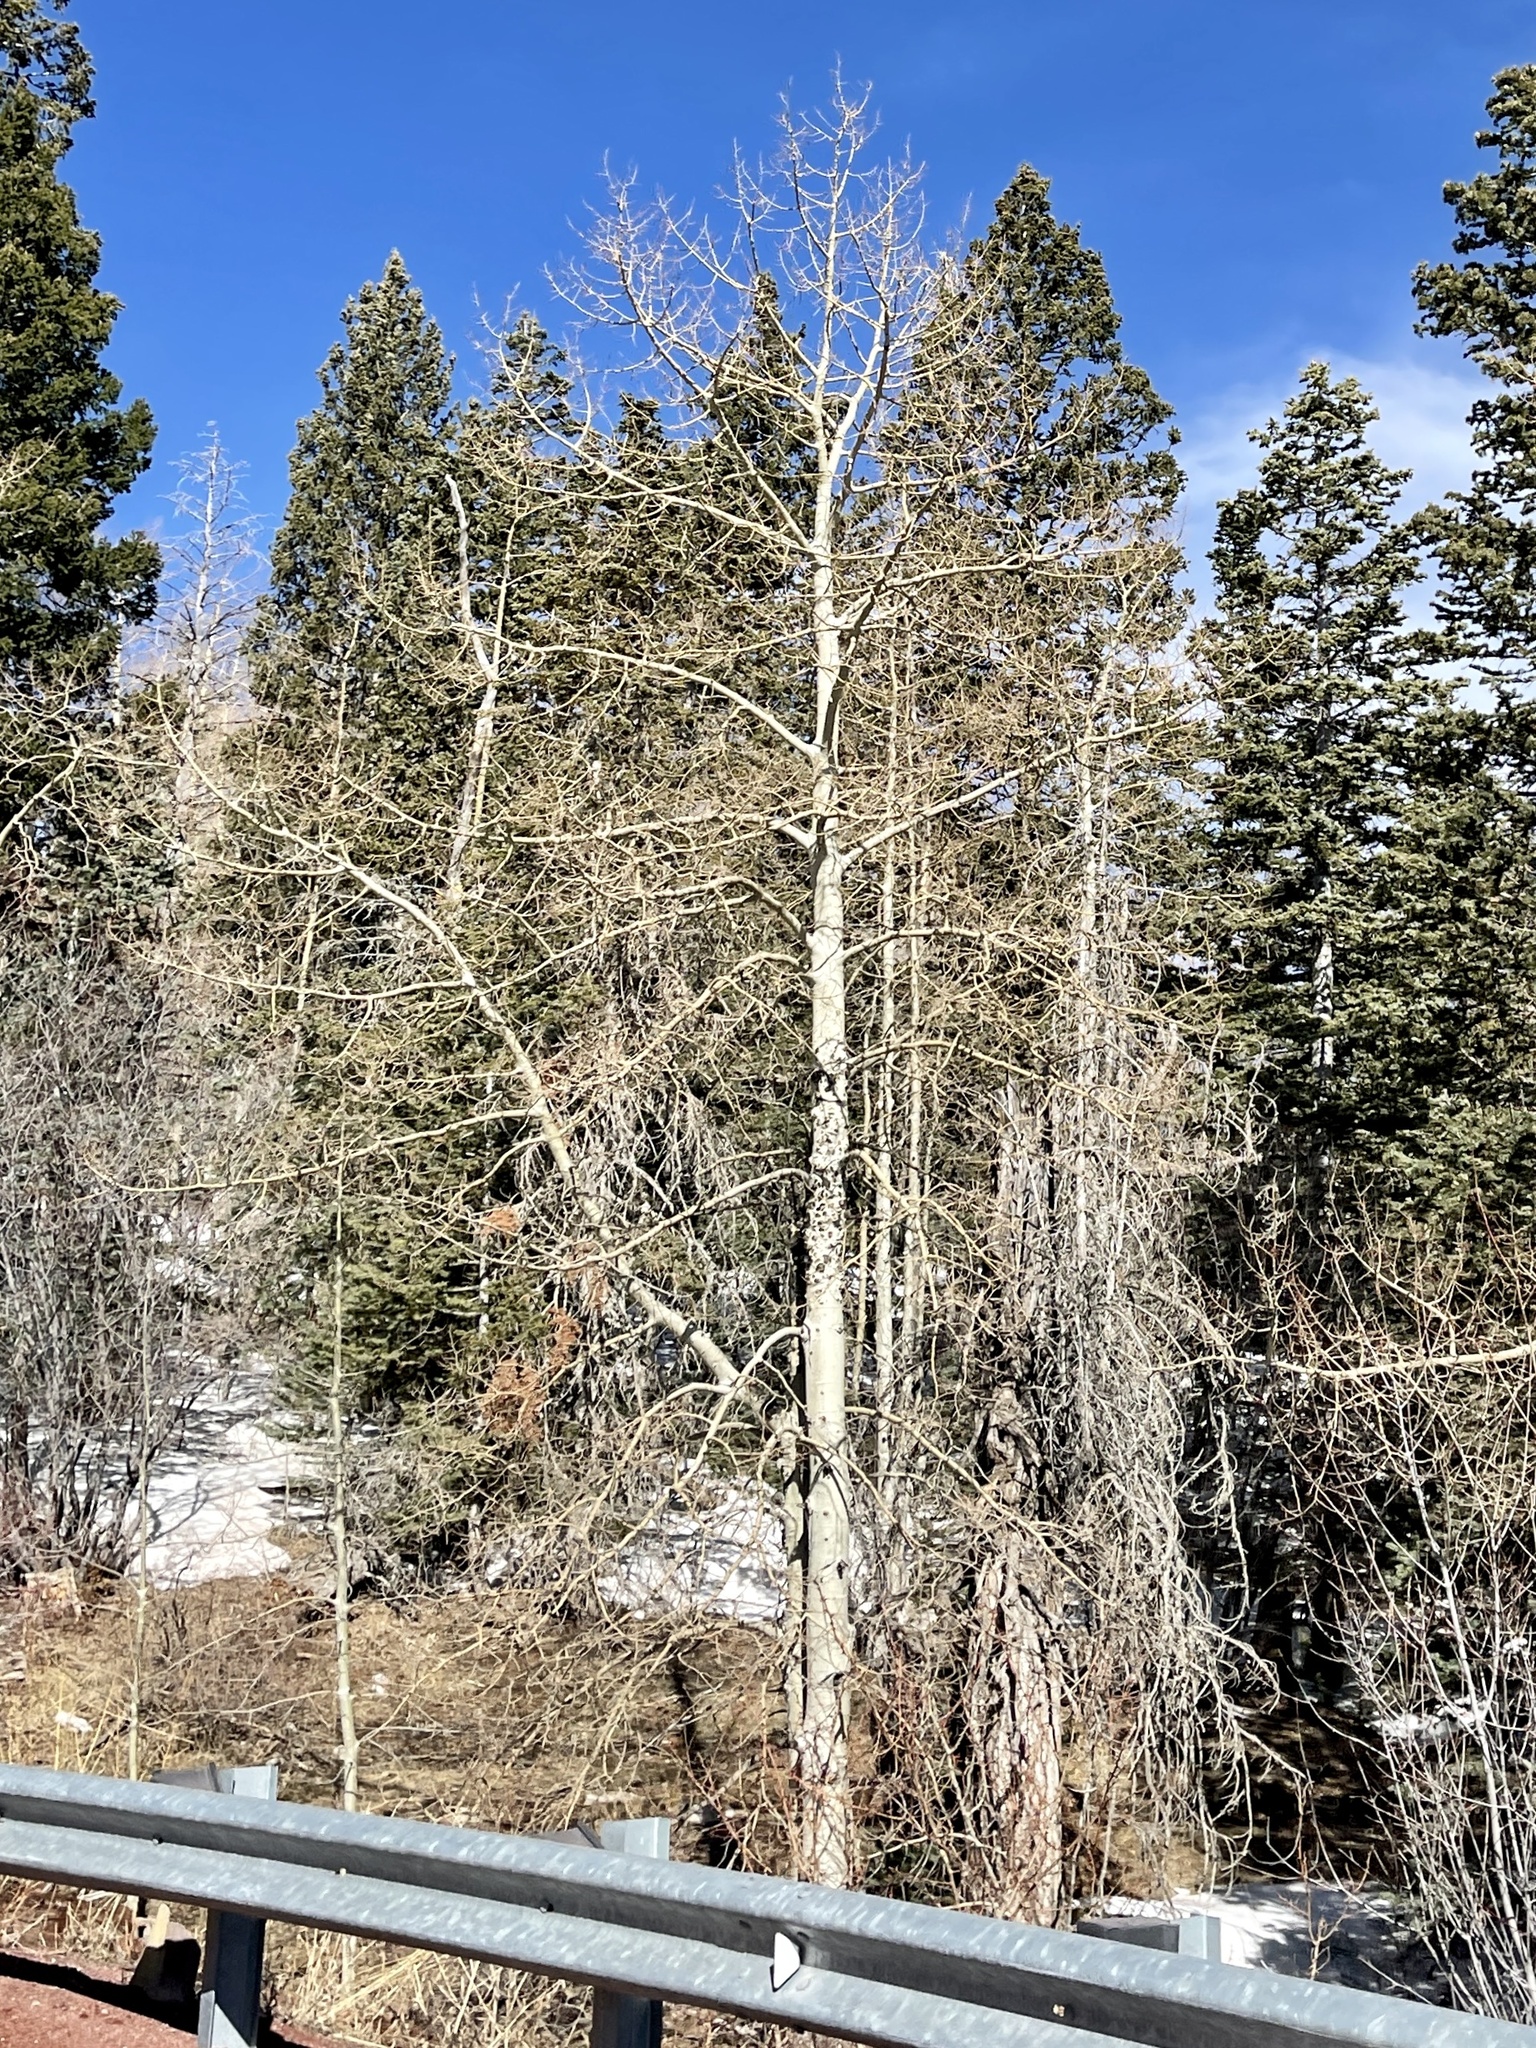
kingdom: Plantae
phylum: Tracheophyta
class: Magnoliopsida
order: Malpighiales
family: Salicaceae
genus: Populus
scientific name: Populus tremuloides
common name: Quaking aspen
